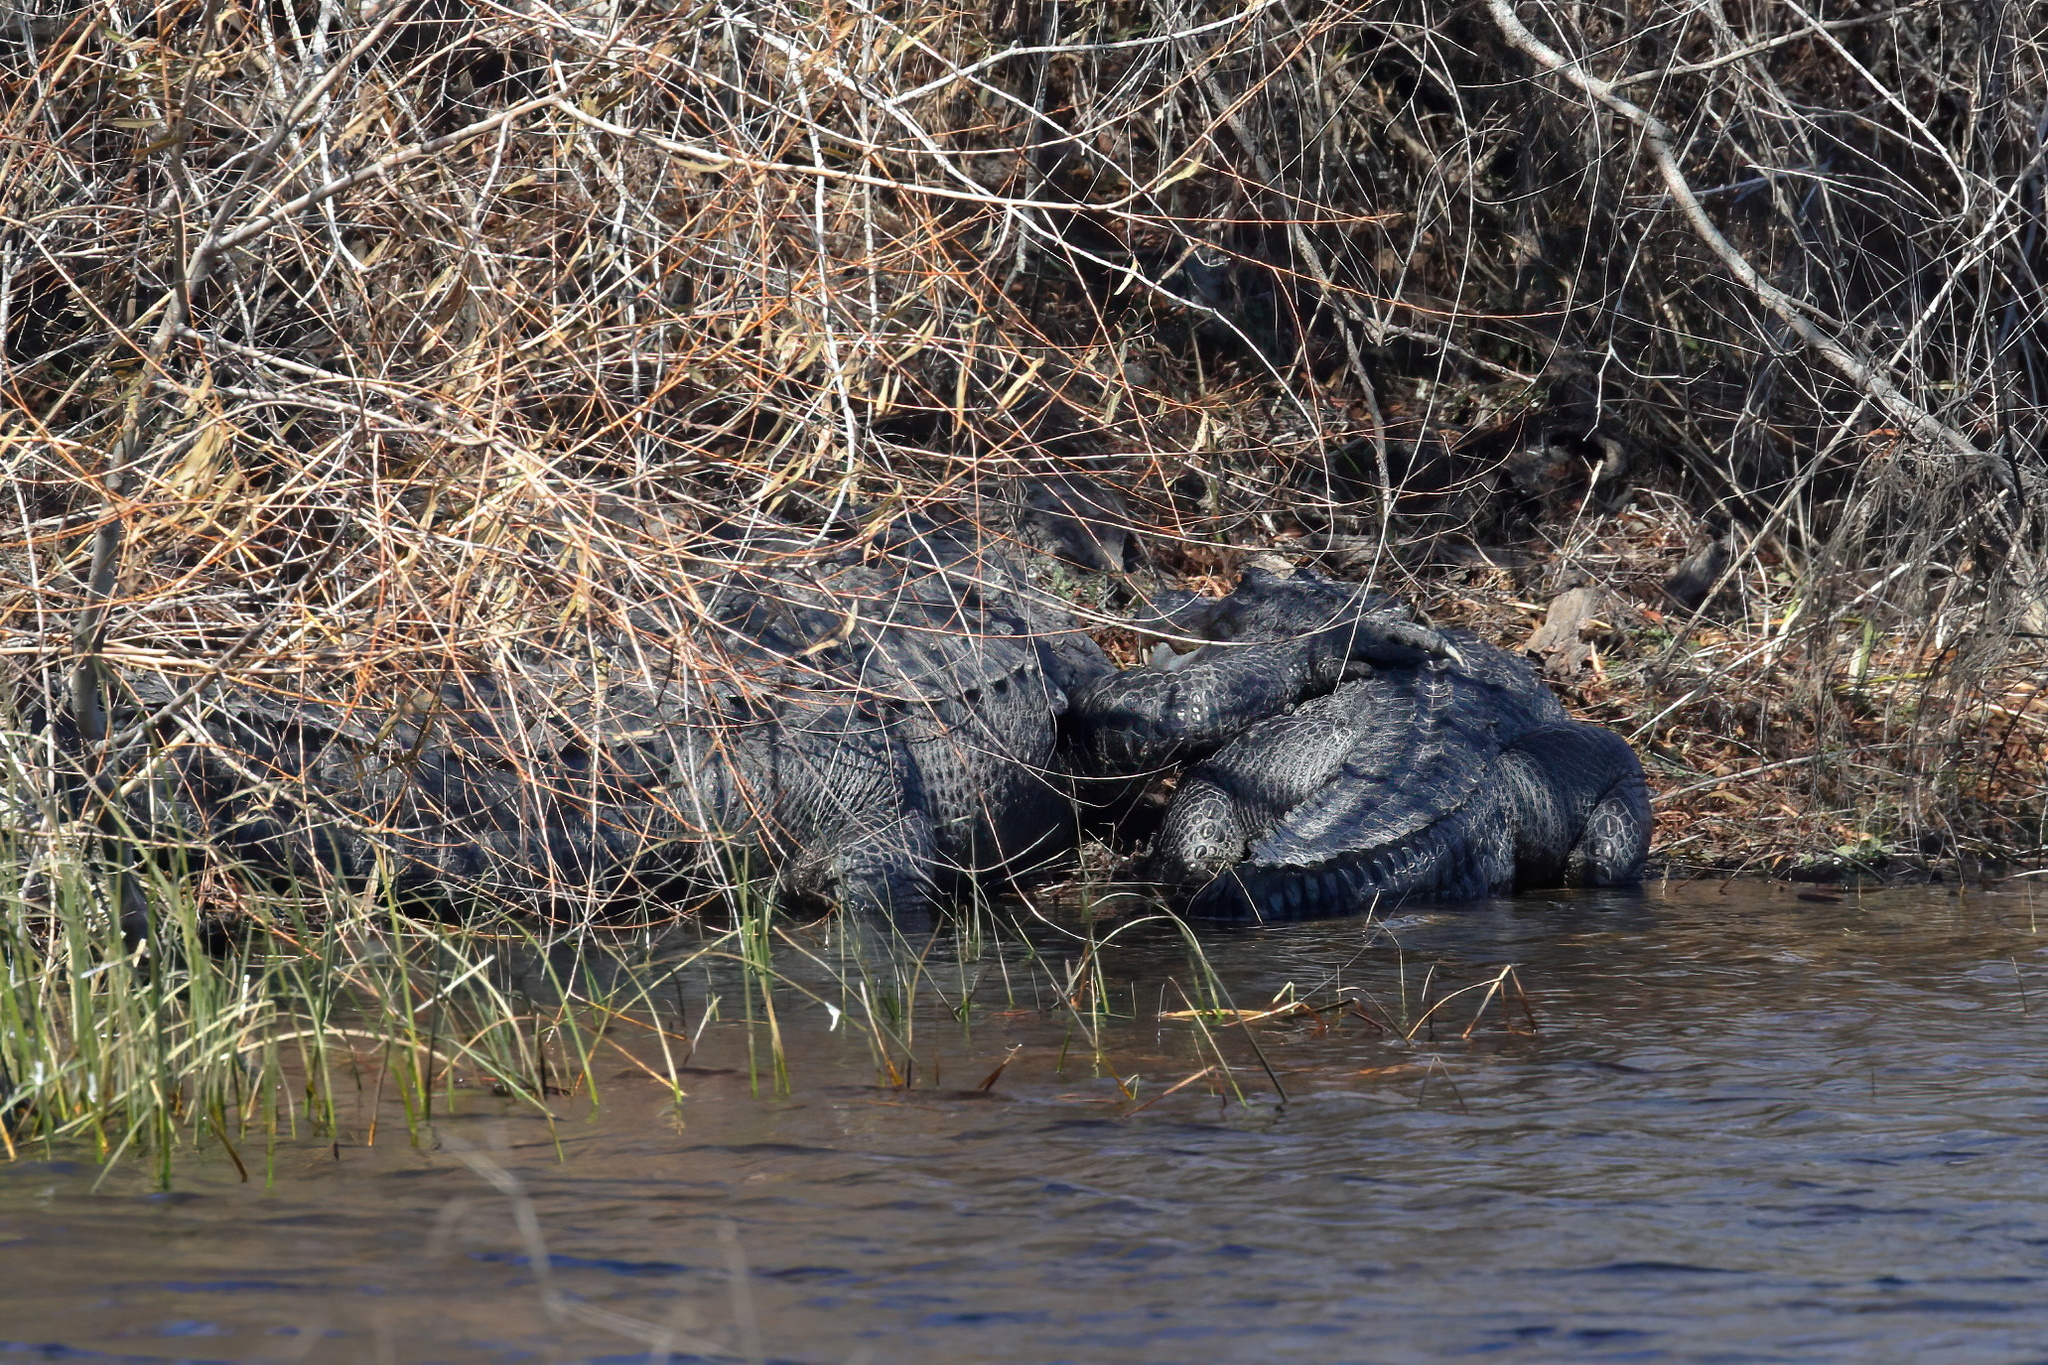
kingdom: Animalia
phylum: Chordata
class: Crocodylia
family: Alligatoridae
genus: Alligator
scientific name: Alligator mississippiensis
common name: American alligator
